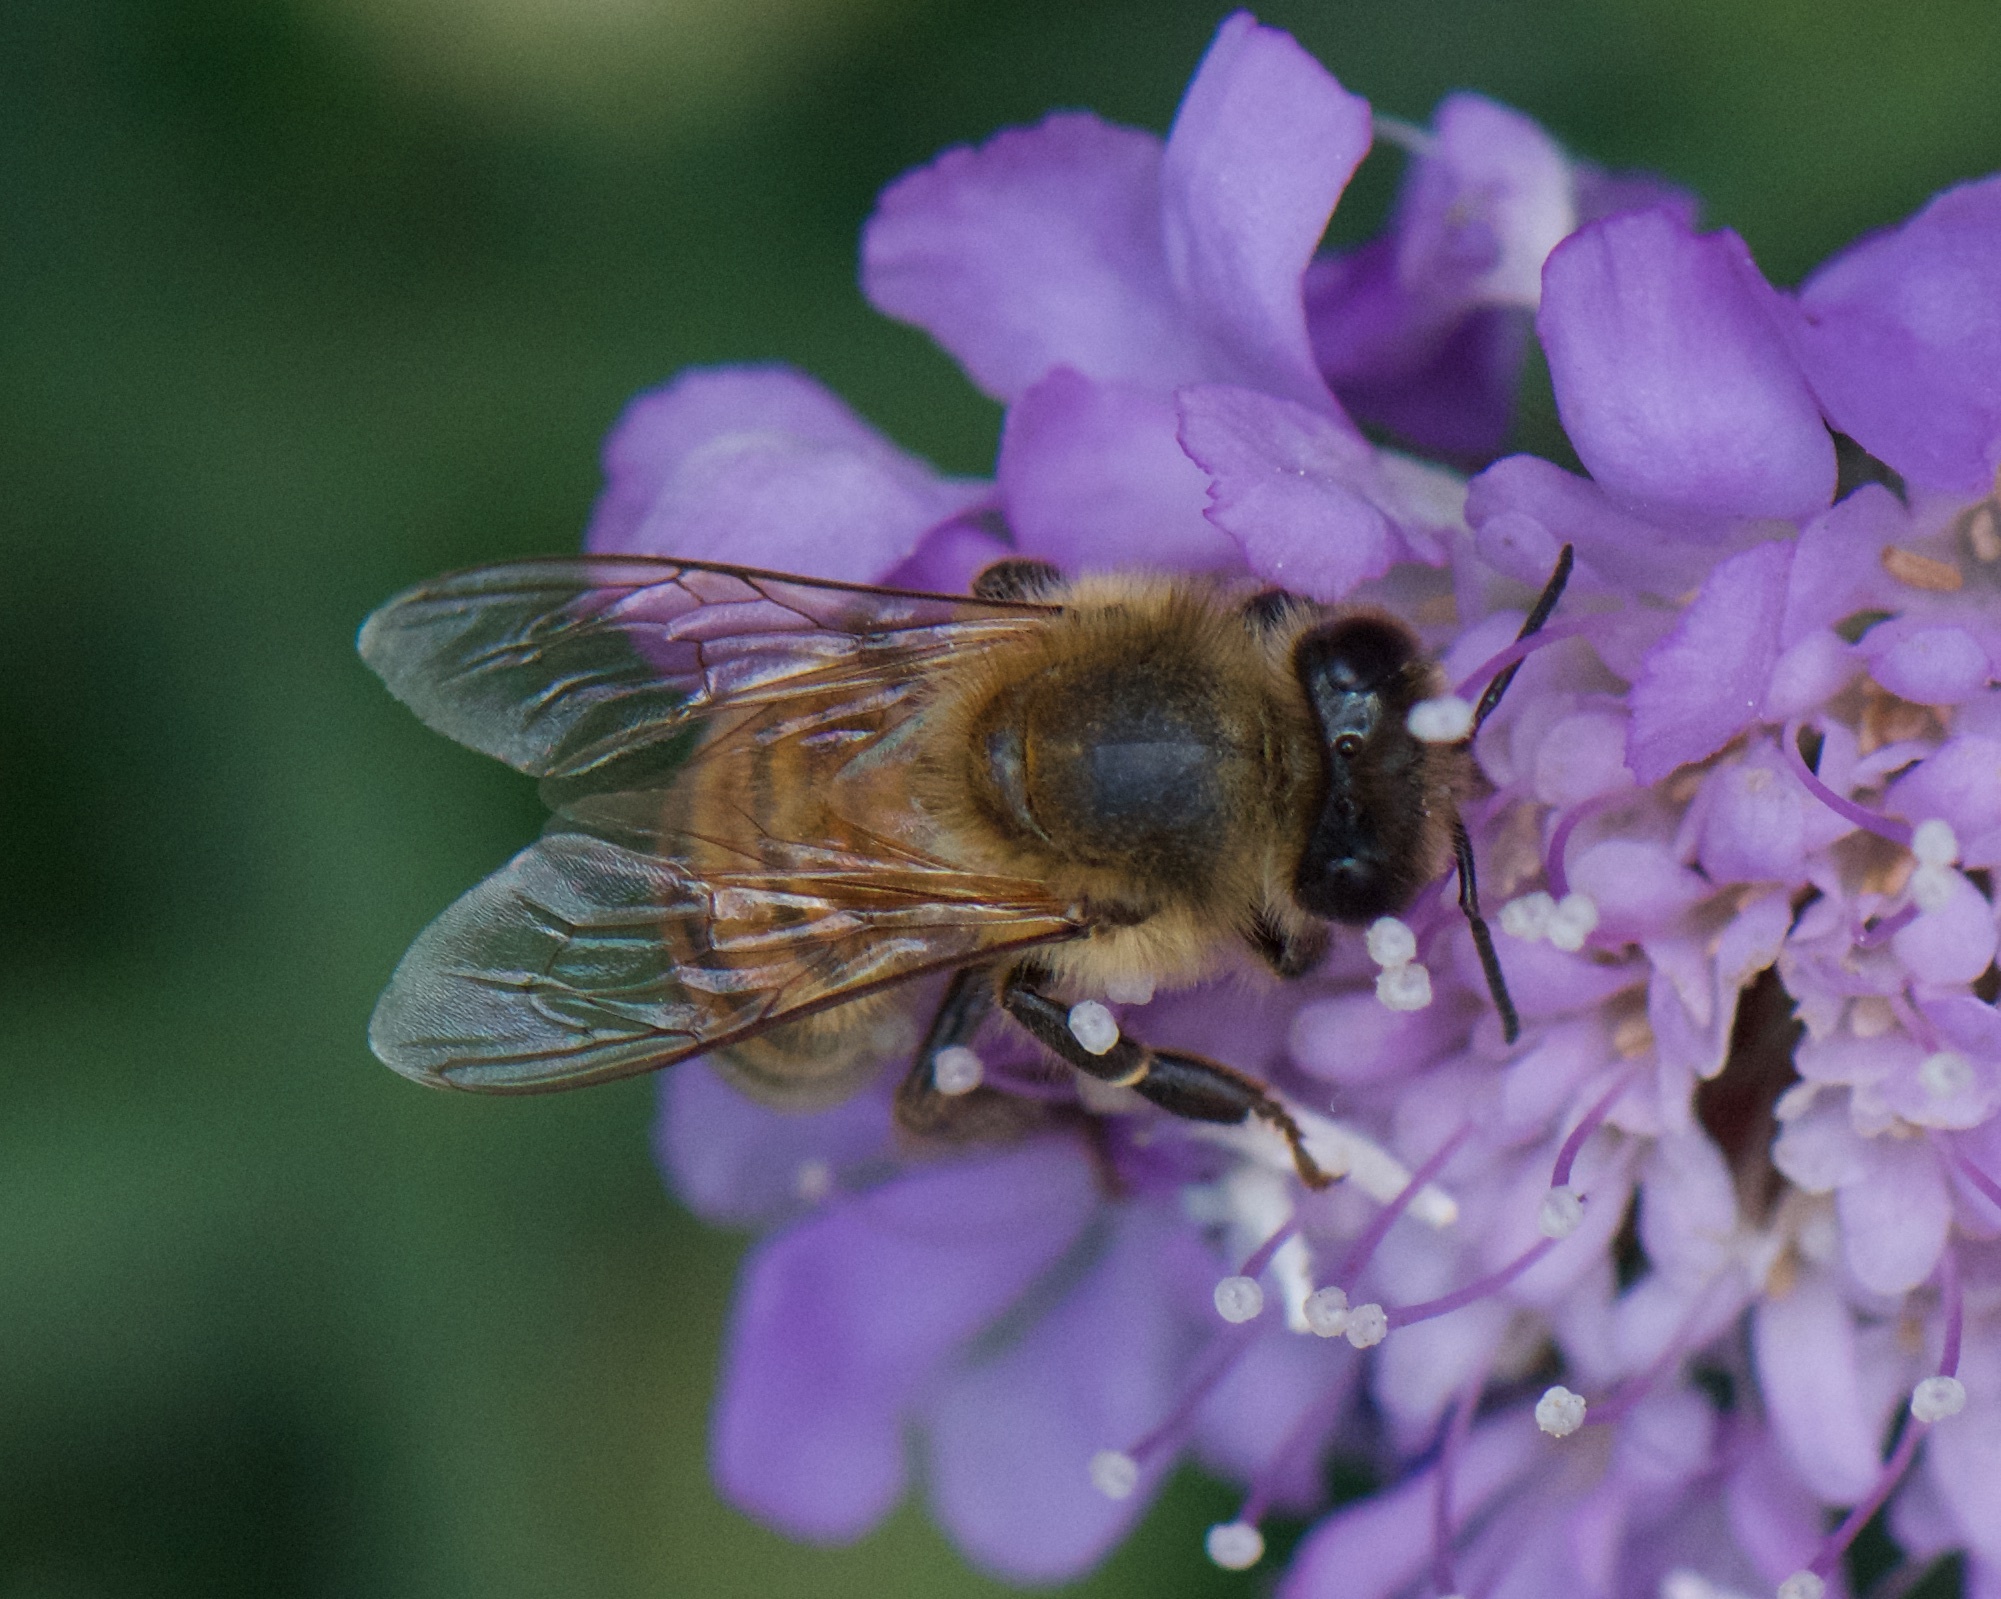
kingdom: Animalia
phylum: Arthropoda
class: Insecta
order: Hymenoptera
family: Apidae
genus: Apis
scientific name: Apis mellifera
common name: Honey bee
